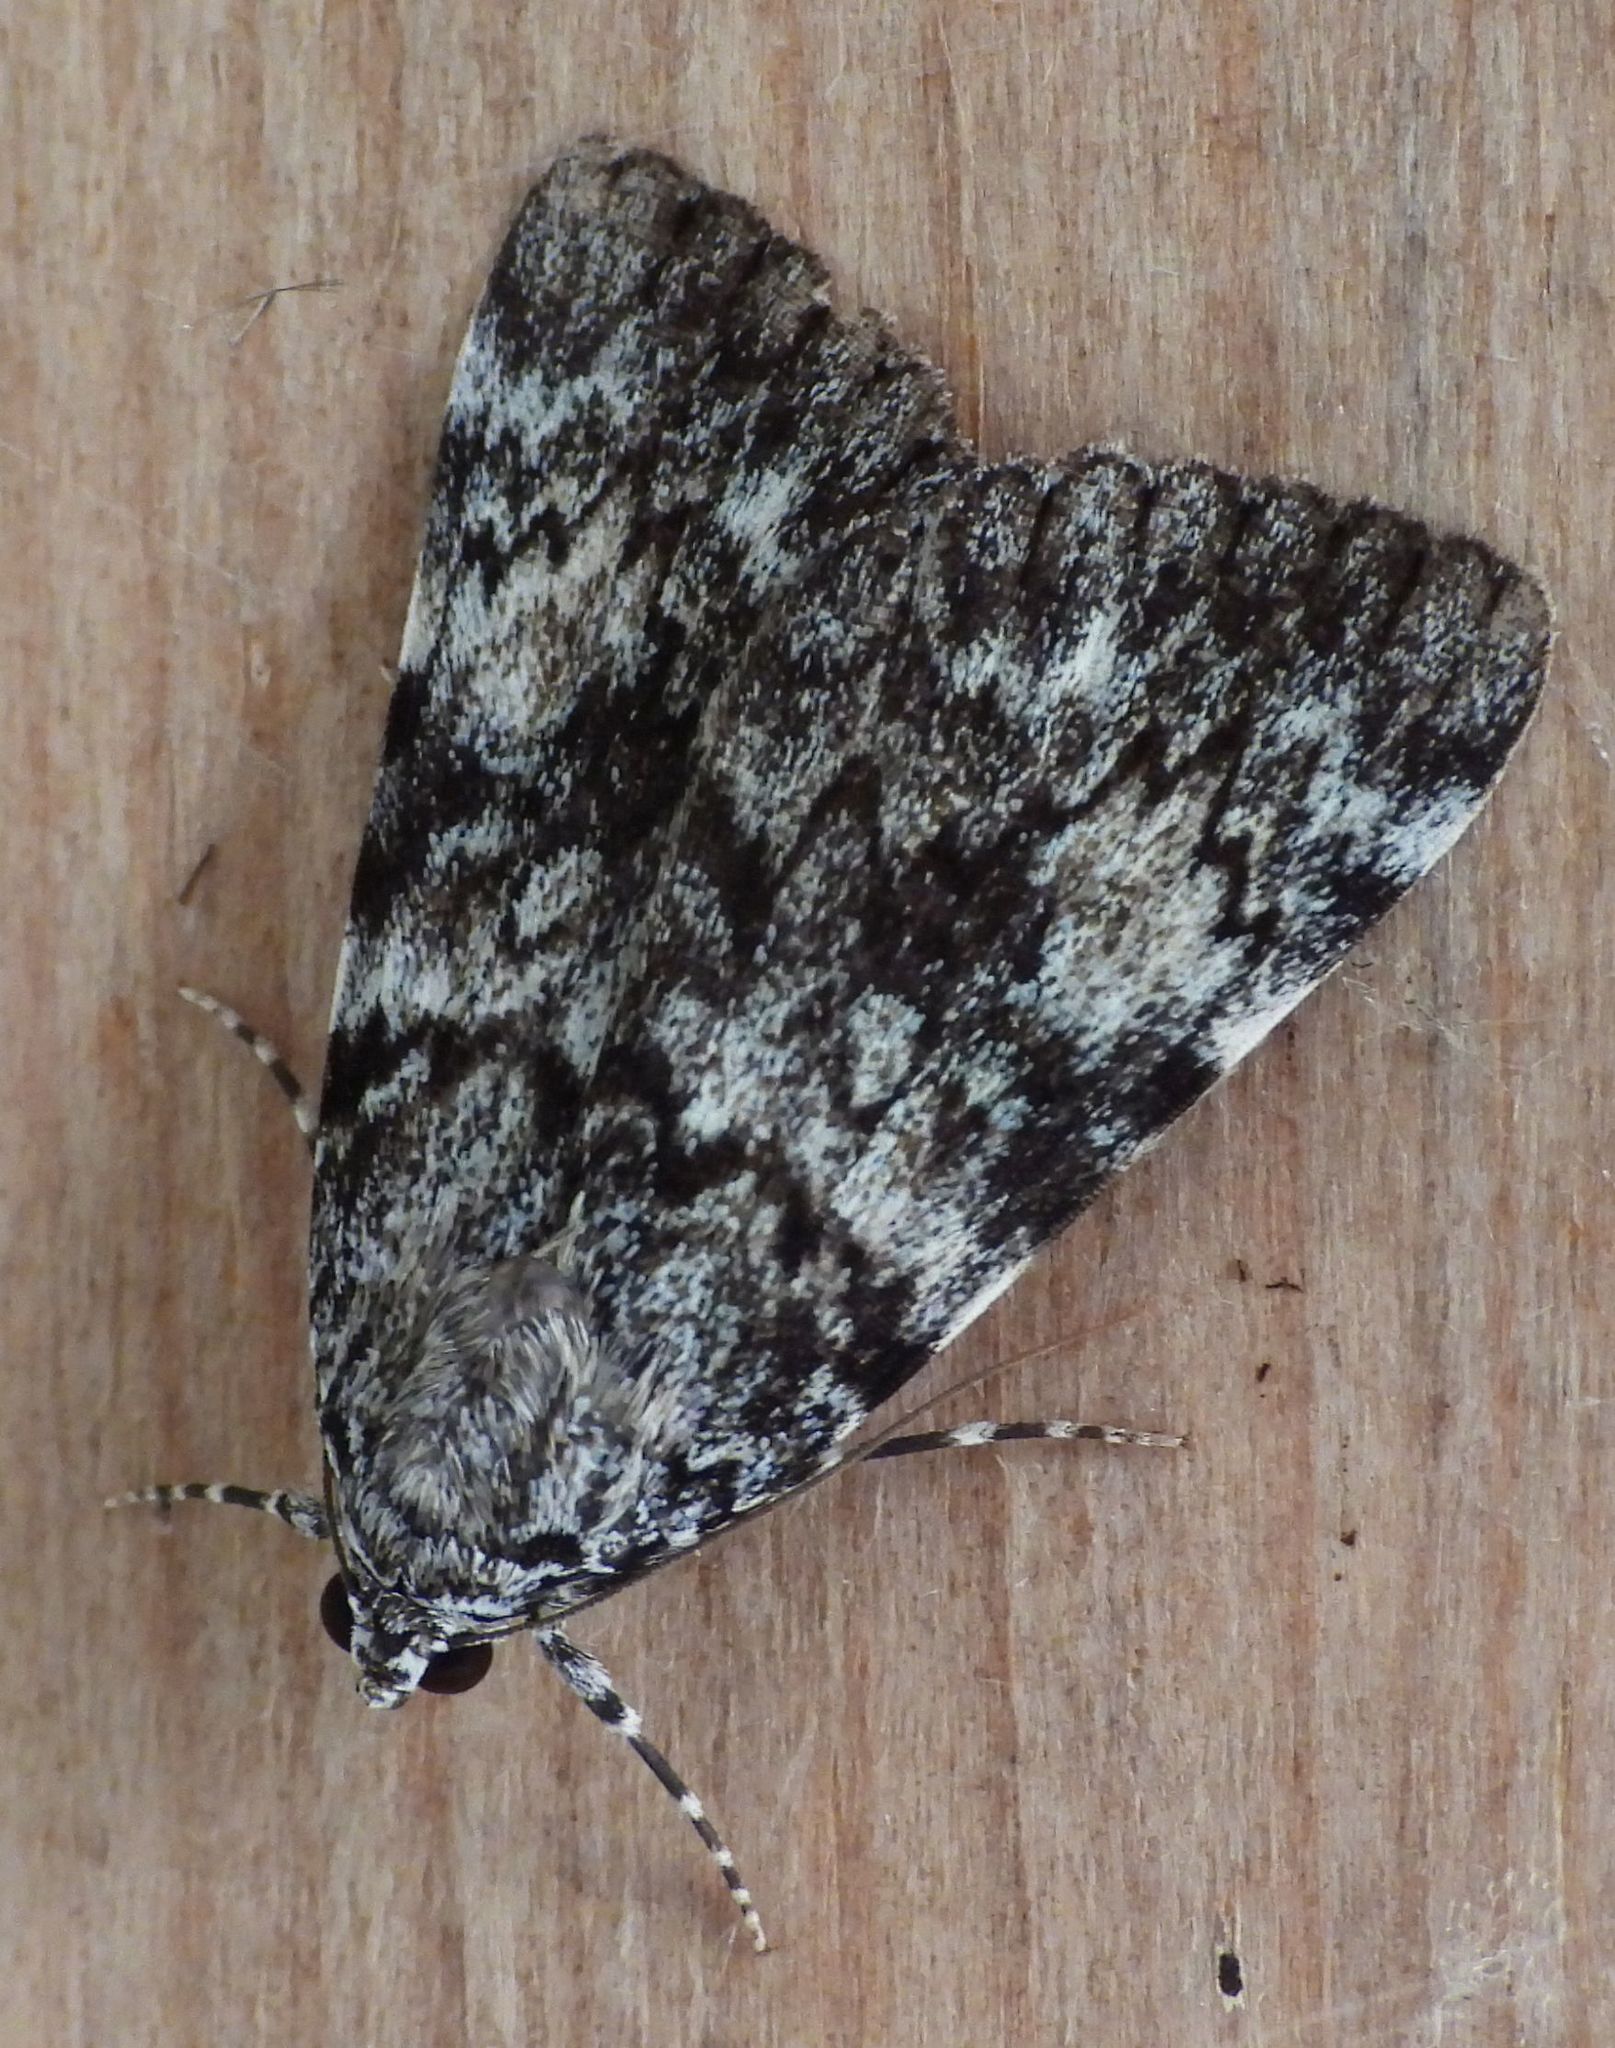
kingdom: Animalia
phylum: Arthropoda
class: Insecta
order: Lepidoptera
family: Erebidae
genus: Catocala
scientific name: Catocala lineella
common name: Little lined underwing
